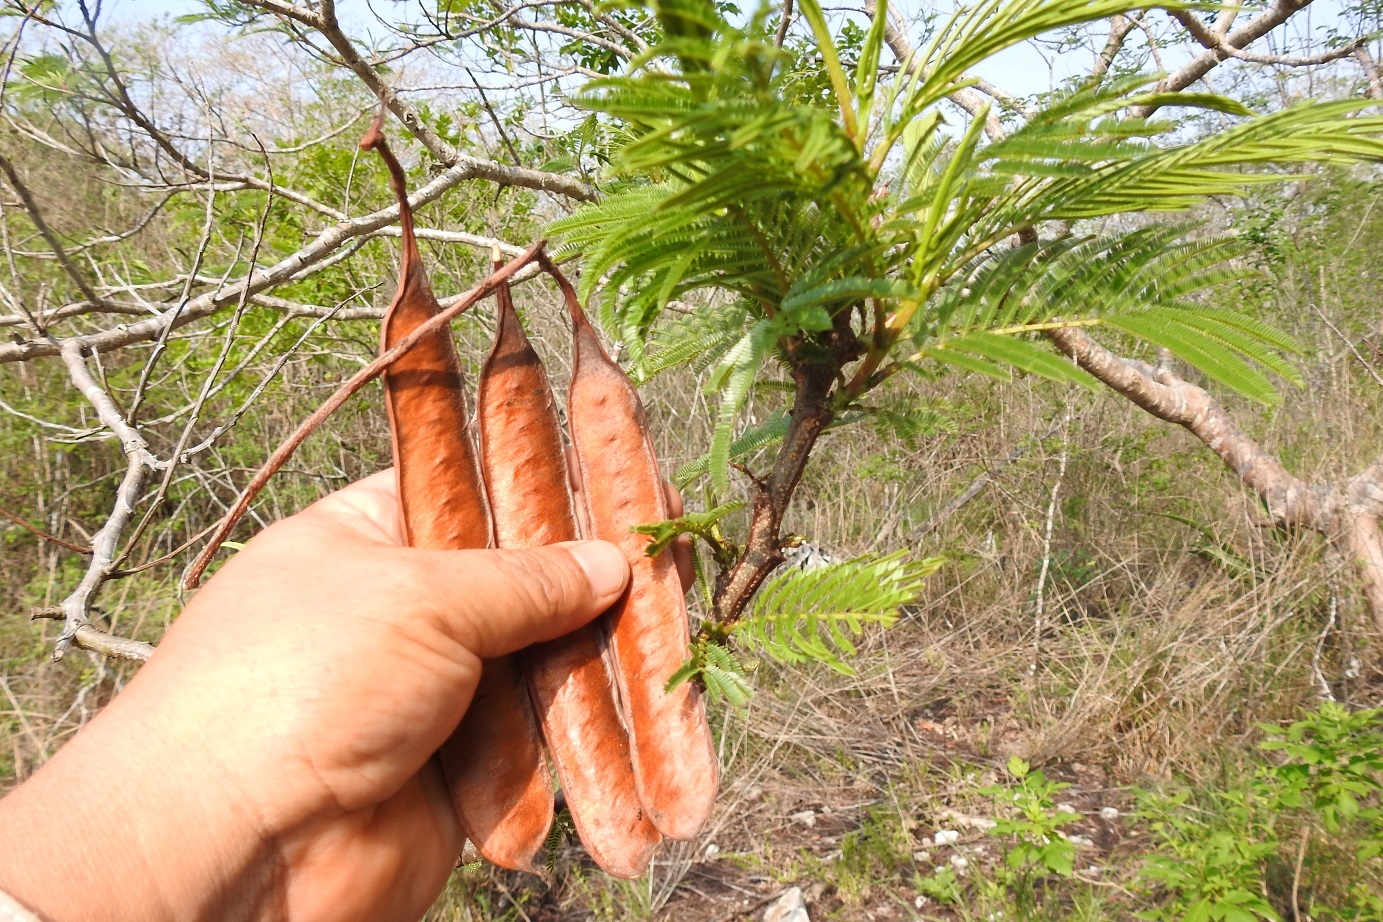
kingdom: Plantae
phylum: Tracheophyta
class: Magnoliopsida
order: Fabales
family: Fabaceae
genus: Leucaena
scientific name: Leucaena diversifolia
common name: Red leucaena
